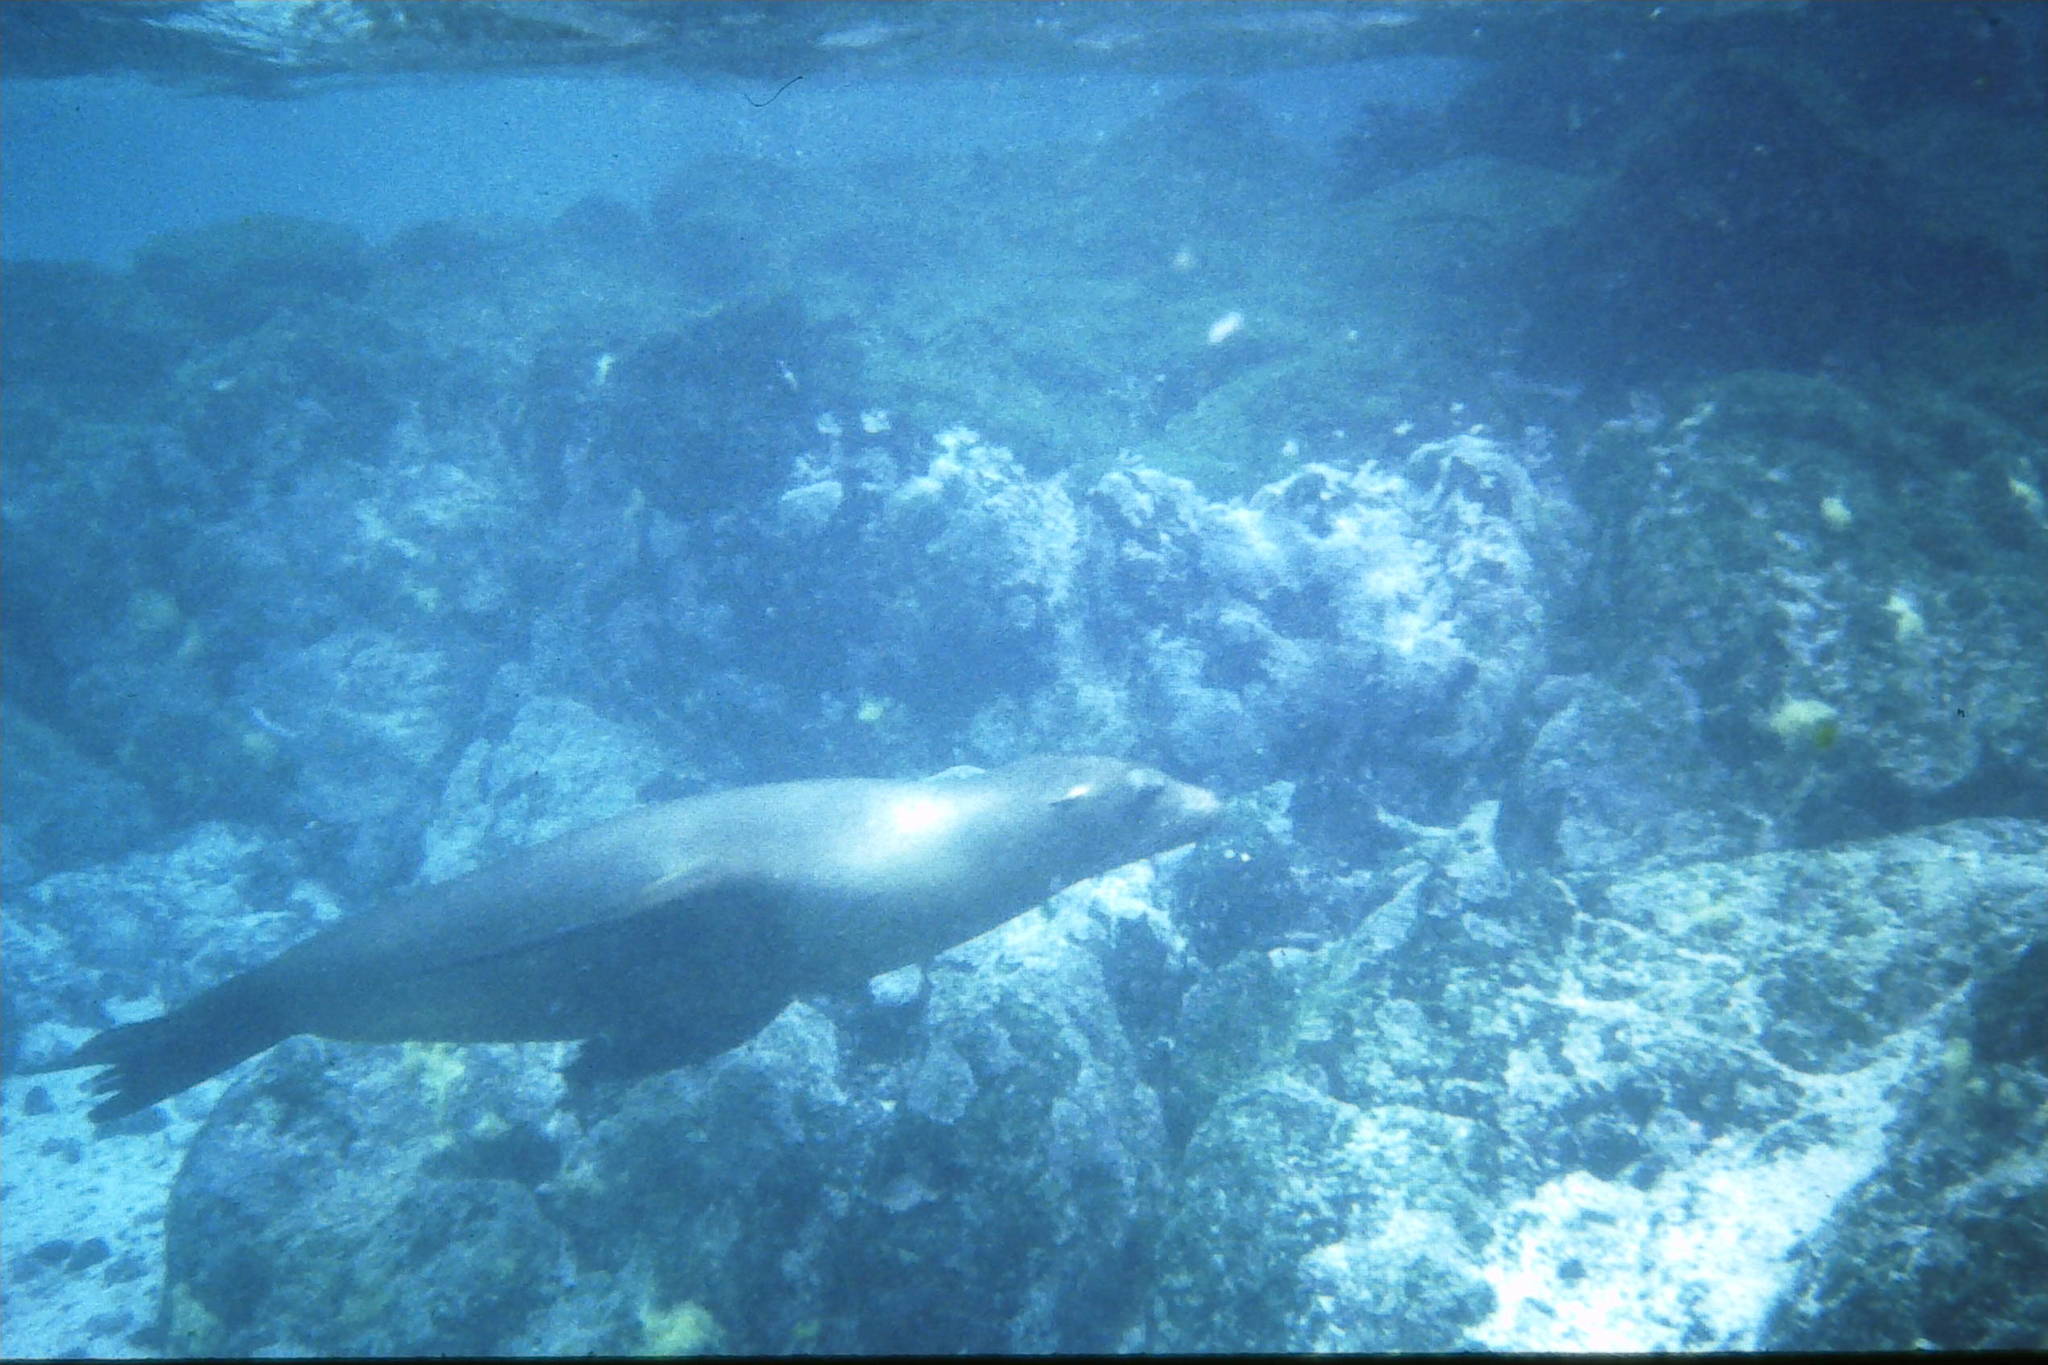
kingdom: Animalia
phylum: Chordata
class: Mammalia
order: Carnivora
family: Otariidae
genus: Zalophus
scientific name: Zalophus wollebaeki
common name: Galapagos sea lion
